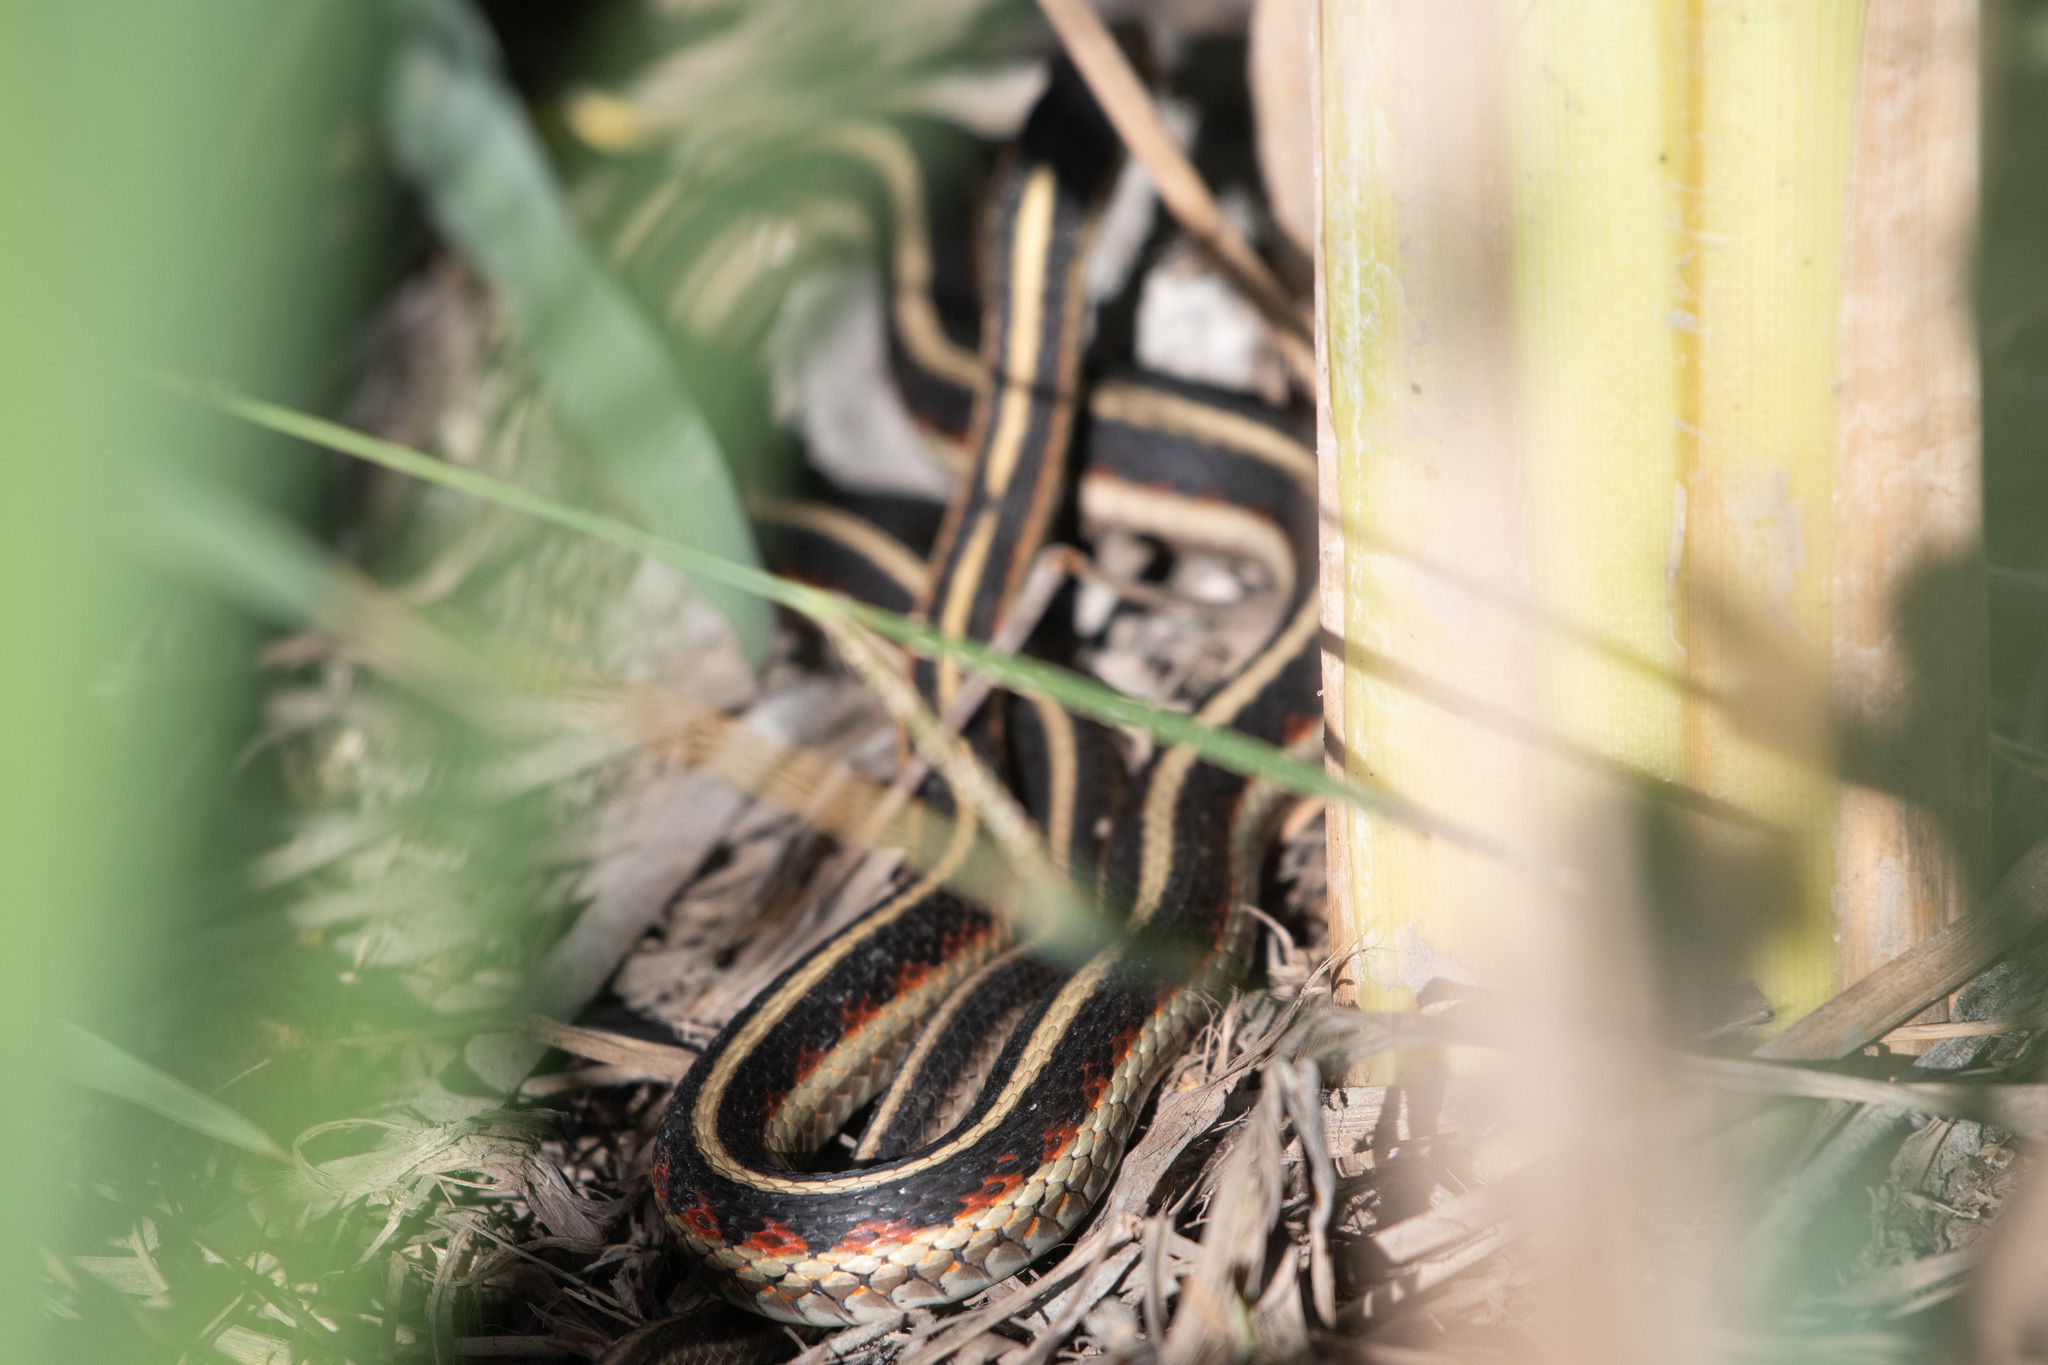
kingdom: Animalia
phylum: Chordata
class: Squamata
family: Colubridae
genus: Thamnophis
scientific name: Thamnophis sirtalis
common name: Common garter snake
